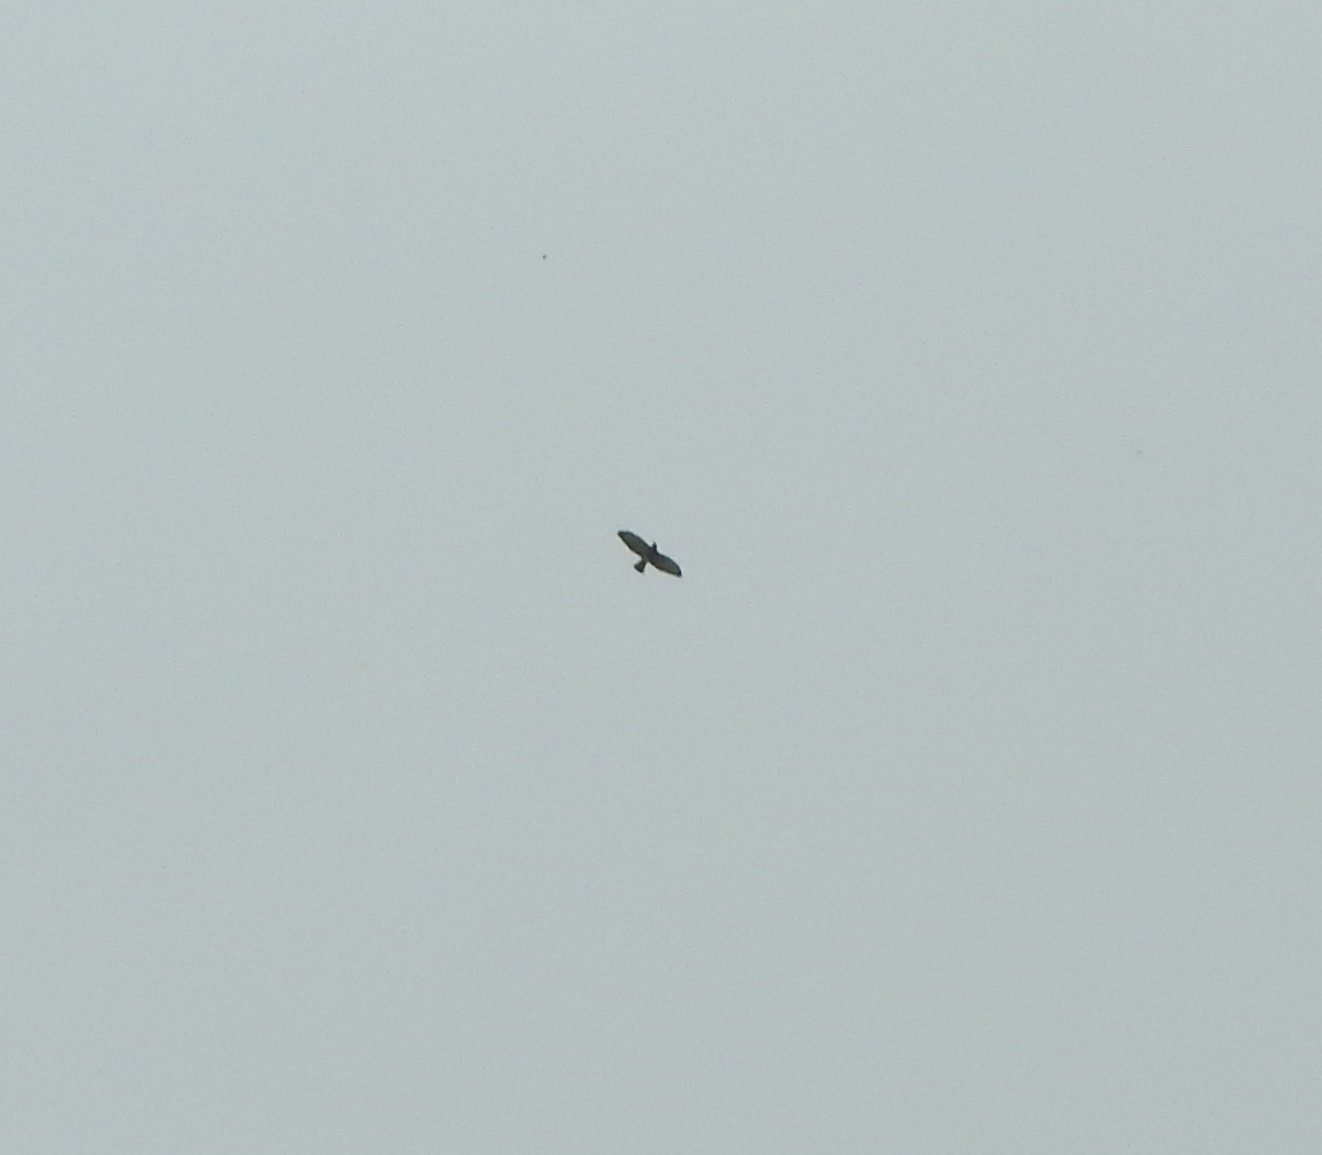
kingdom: Animalia
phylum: Chordata
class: Aves
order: Accipitriformes
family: Accipitridae
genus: Buteo
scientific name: Buteo platypterus
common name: Broad-winged hawk
